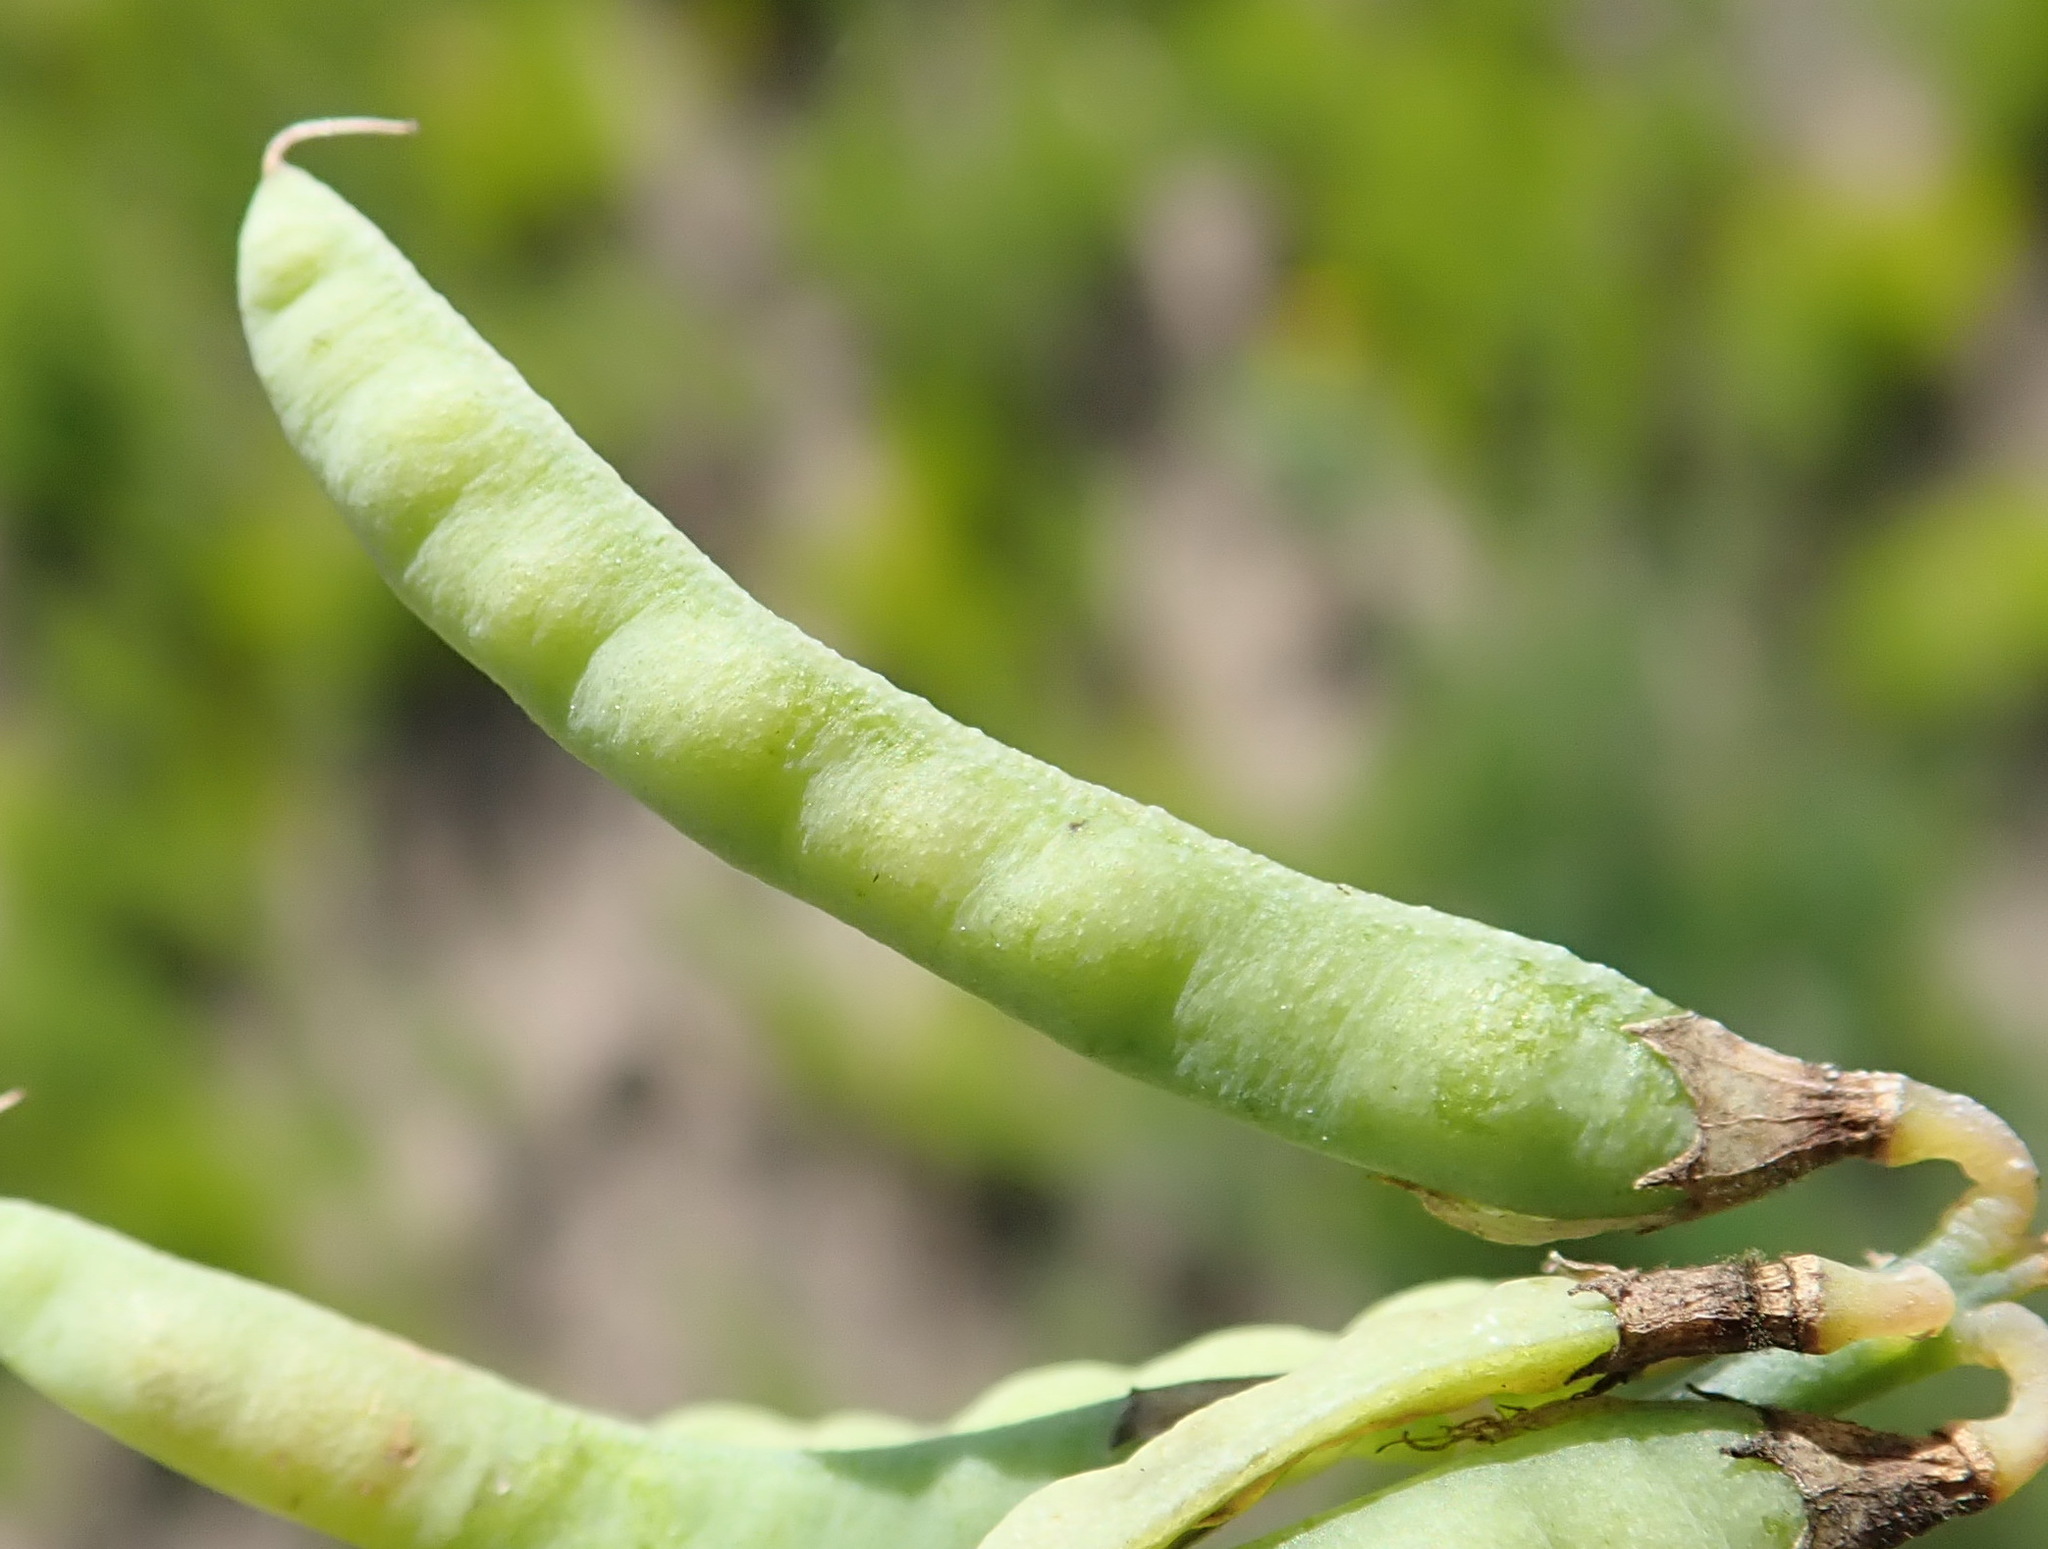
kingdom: Plantae
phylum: Tracheophyta
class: Magnoliopsida
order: Fabales
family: Fabaceae
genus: Lebeckia
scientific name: Lebeckia gracilis
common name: Slender ganna
